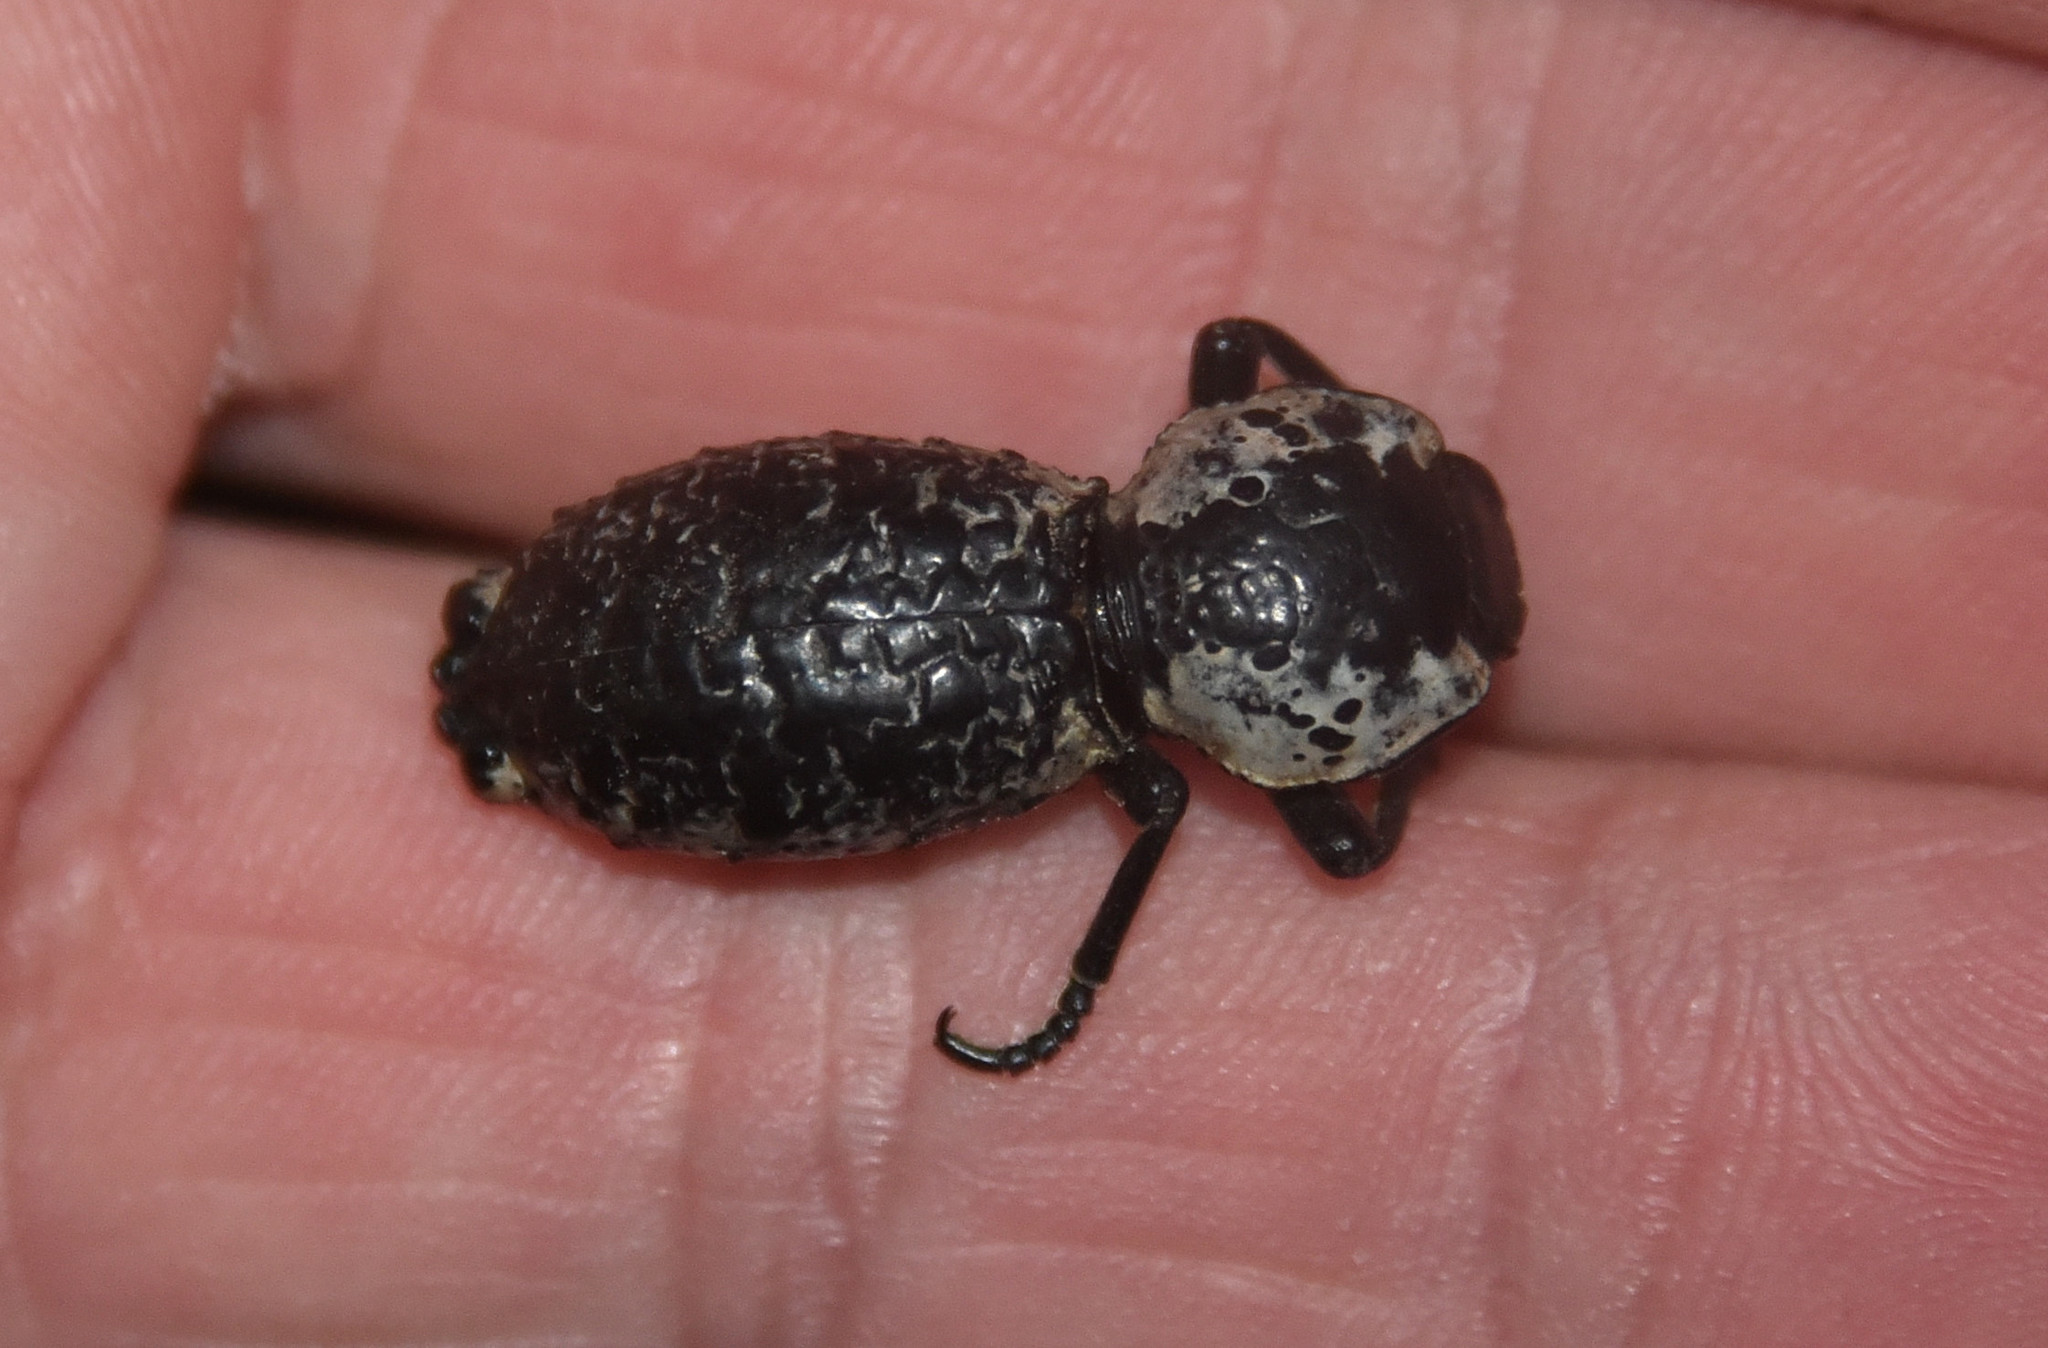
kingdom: Animalia
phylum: Arthropoda
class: Insecta
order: Coleoptera
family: Zopheridae
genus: Zopherus
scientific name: Zopherus nodulosus
